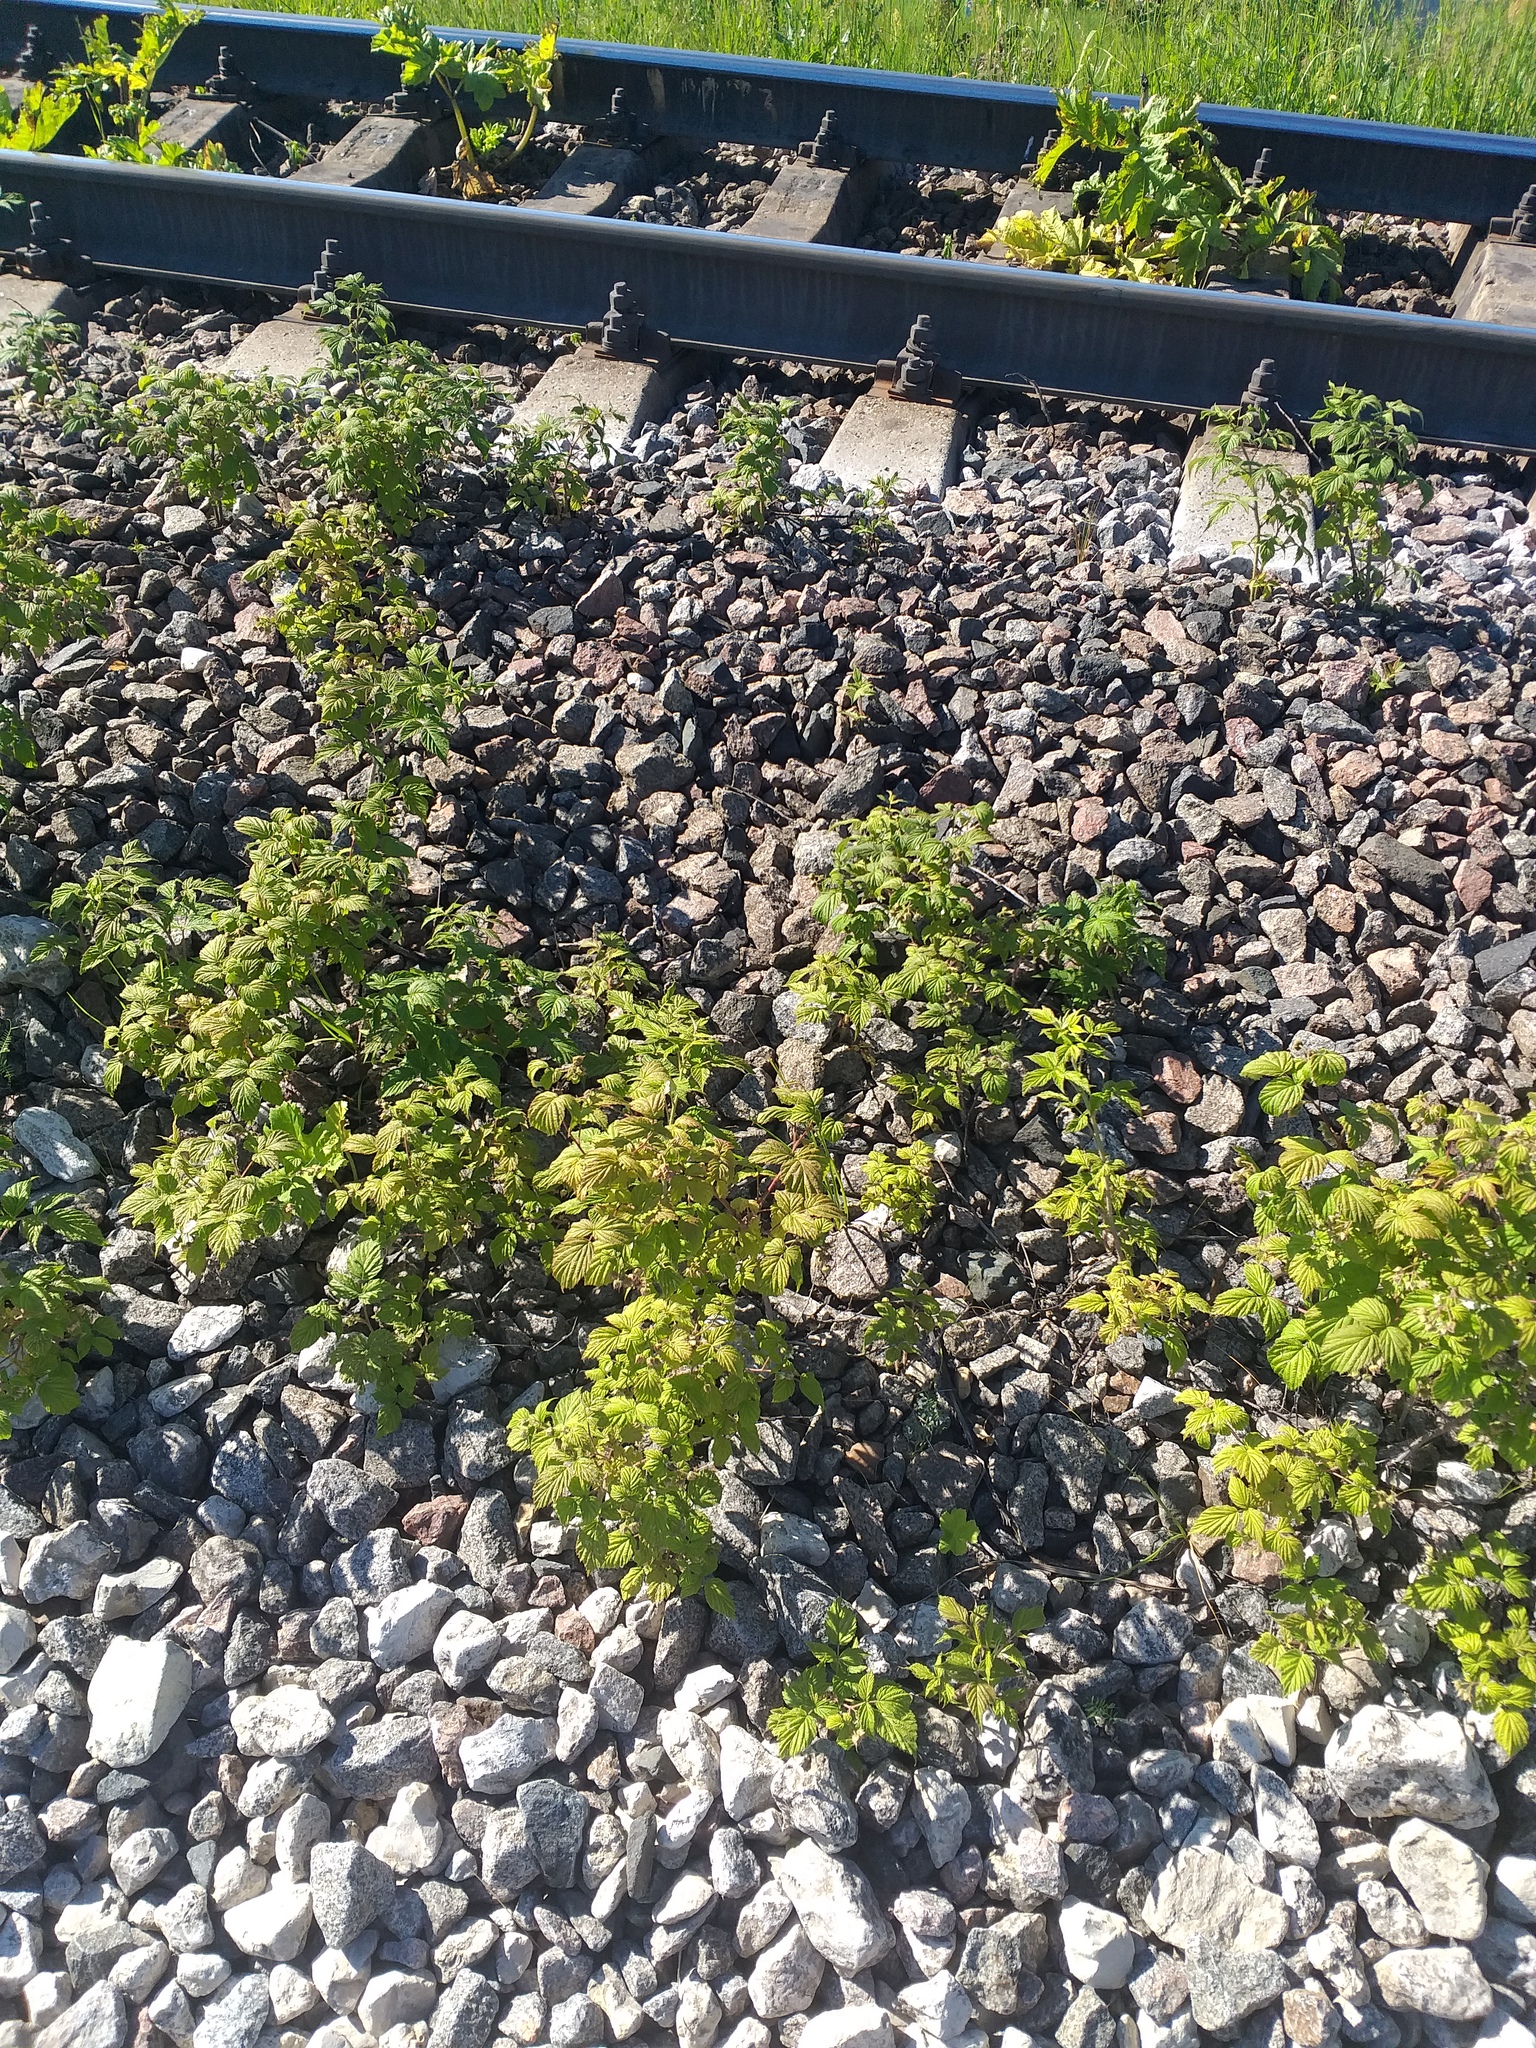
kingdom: Plantae
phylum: Tracheophyta
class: Magnoliopsida
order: Rosales
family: Rosaceae
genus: Rubus
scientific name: Rubus idaeus
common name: Raspberry
